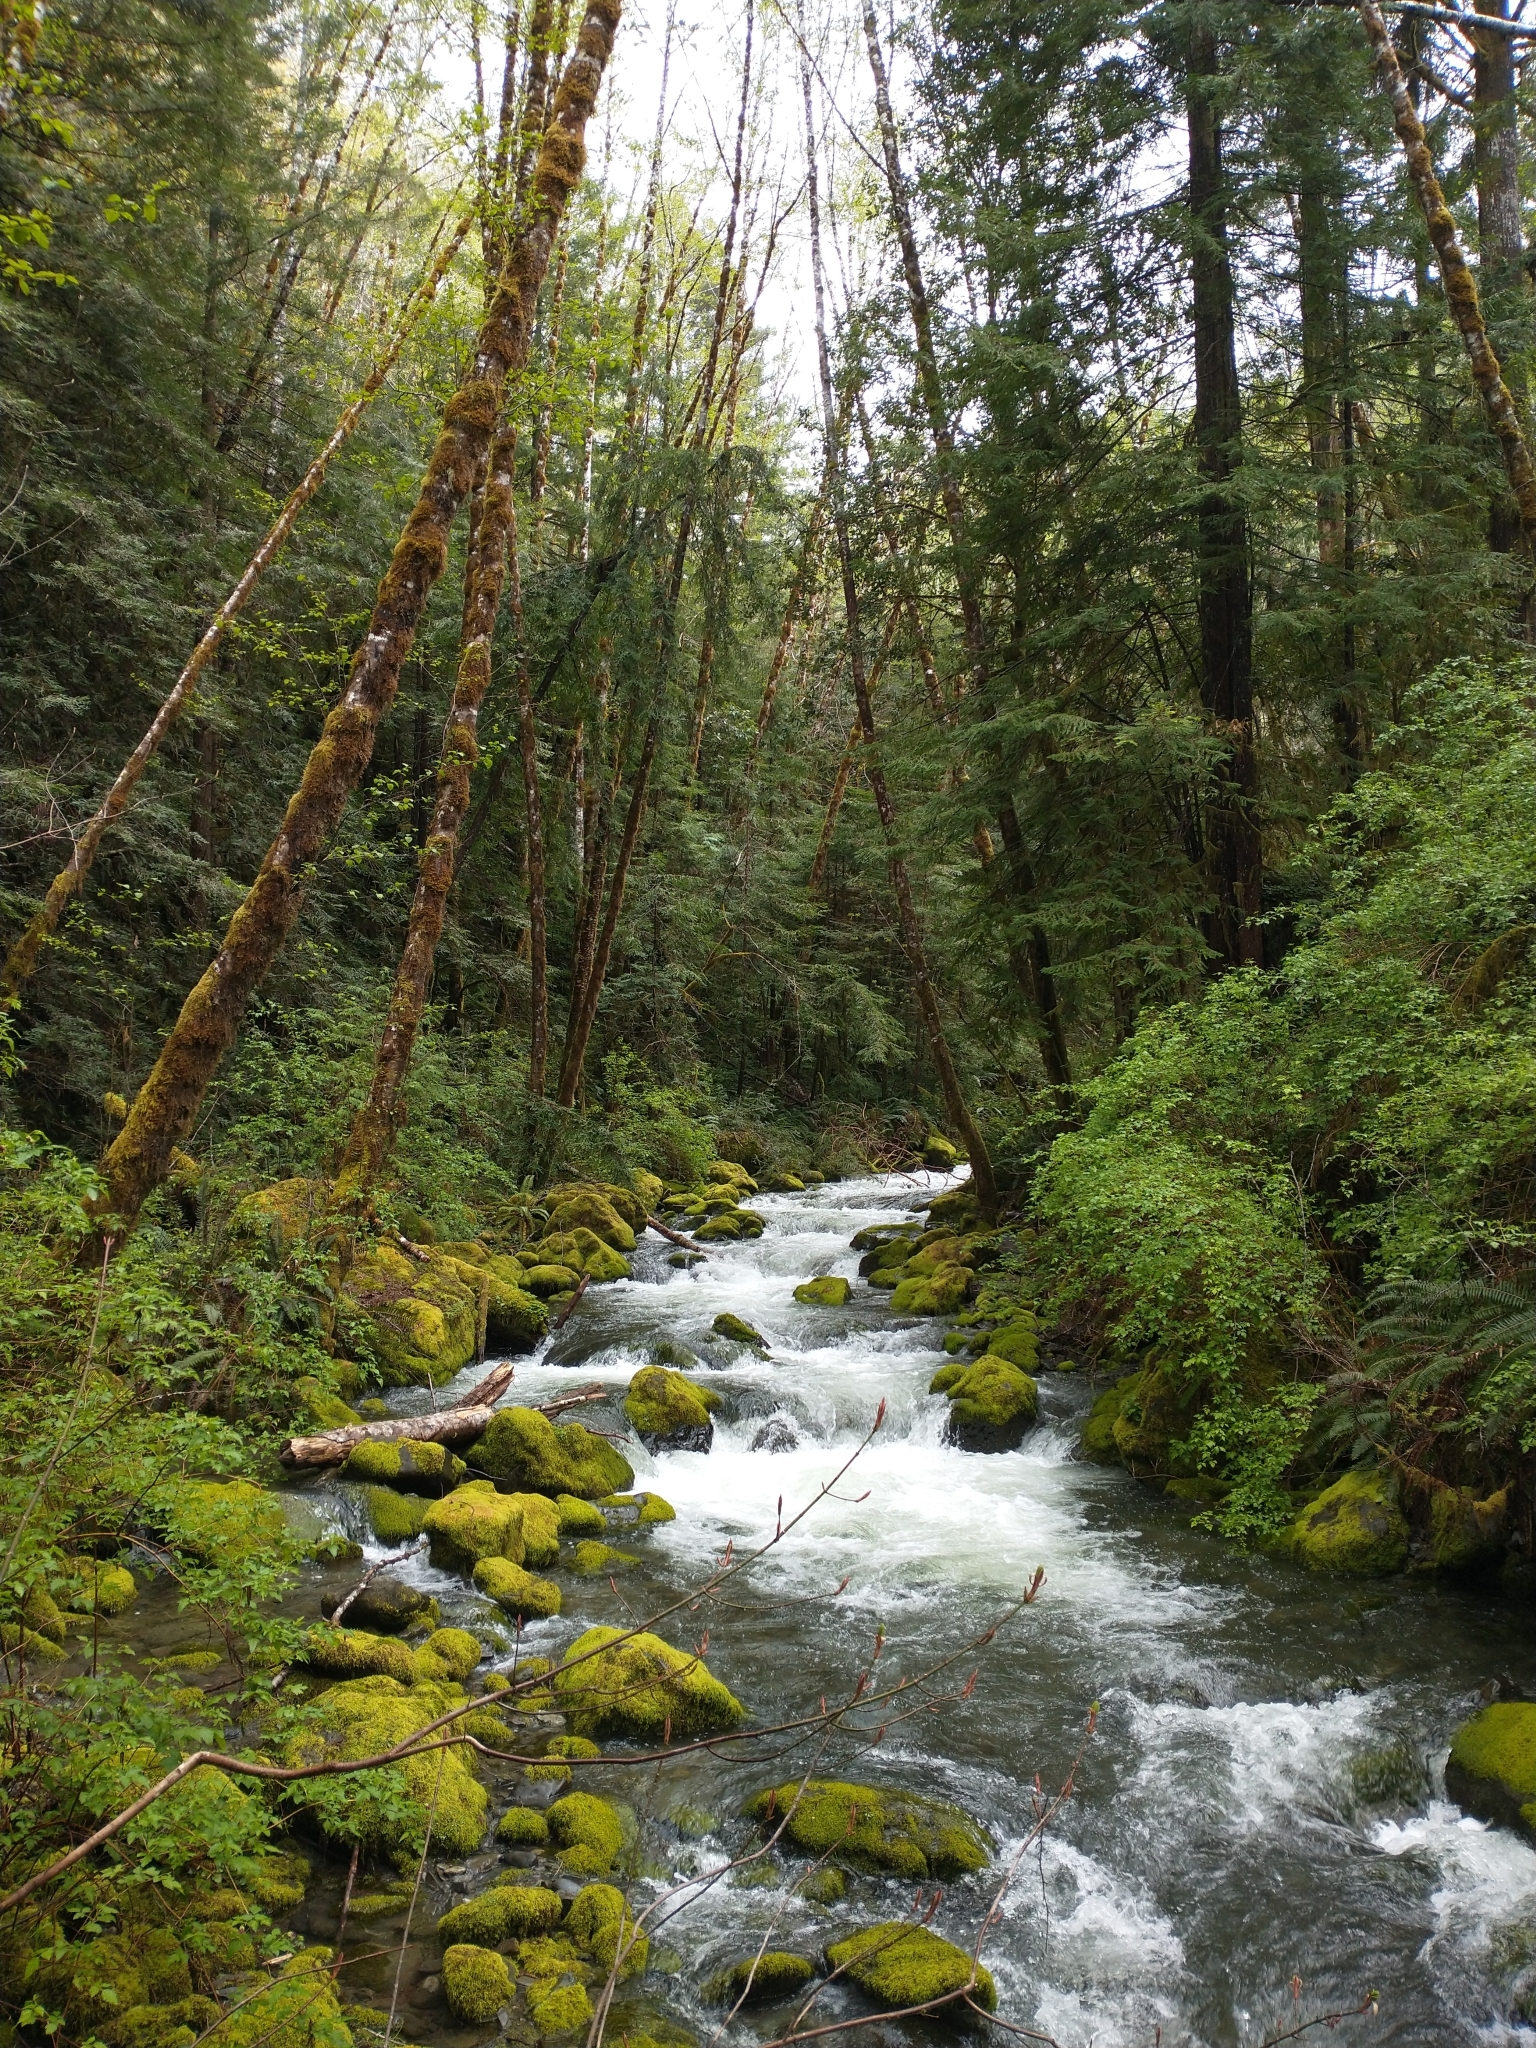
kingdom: Plantae
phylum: Tracheophyta
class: Magnoliopsida
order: Rosales
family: Rosaceae
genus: Rubus
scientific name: Rubus spectabilis
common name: Salmonberry
